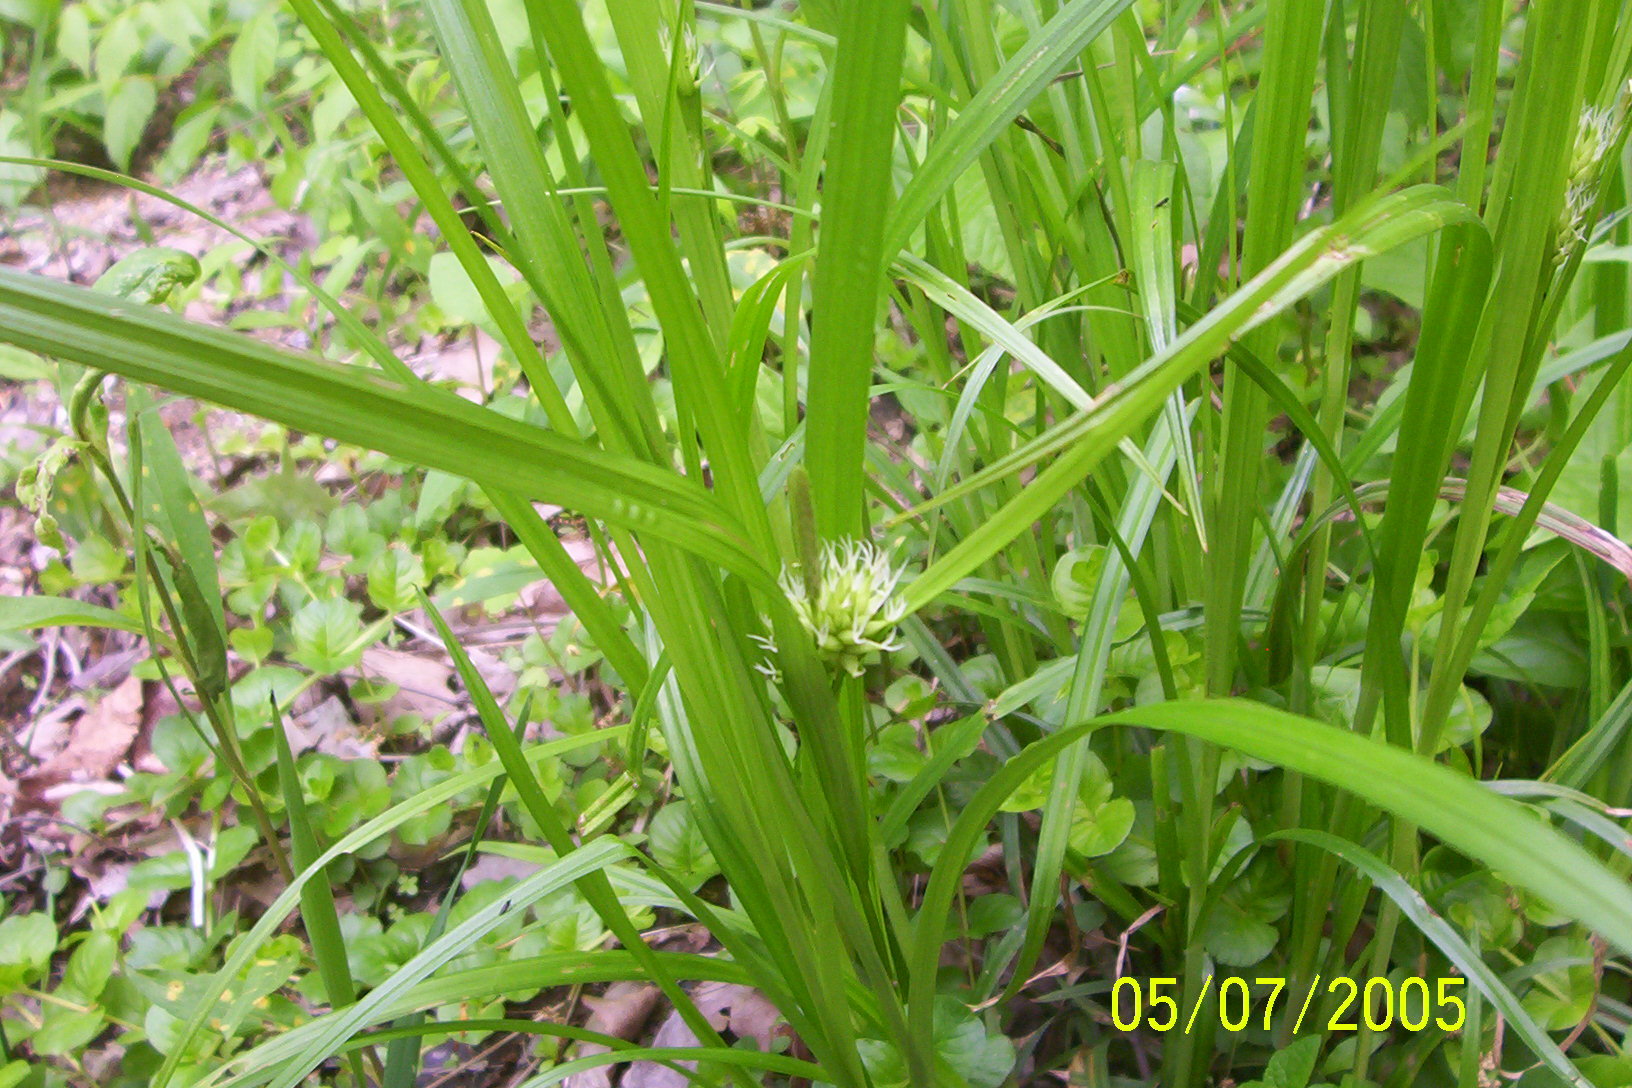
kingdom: Plantae
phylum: Tracheophyta
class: Liliopsida
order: Poales
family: Cyperaceae
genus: Carex
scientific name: Carex grayi
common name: Asa gray's sedge
